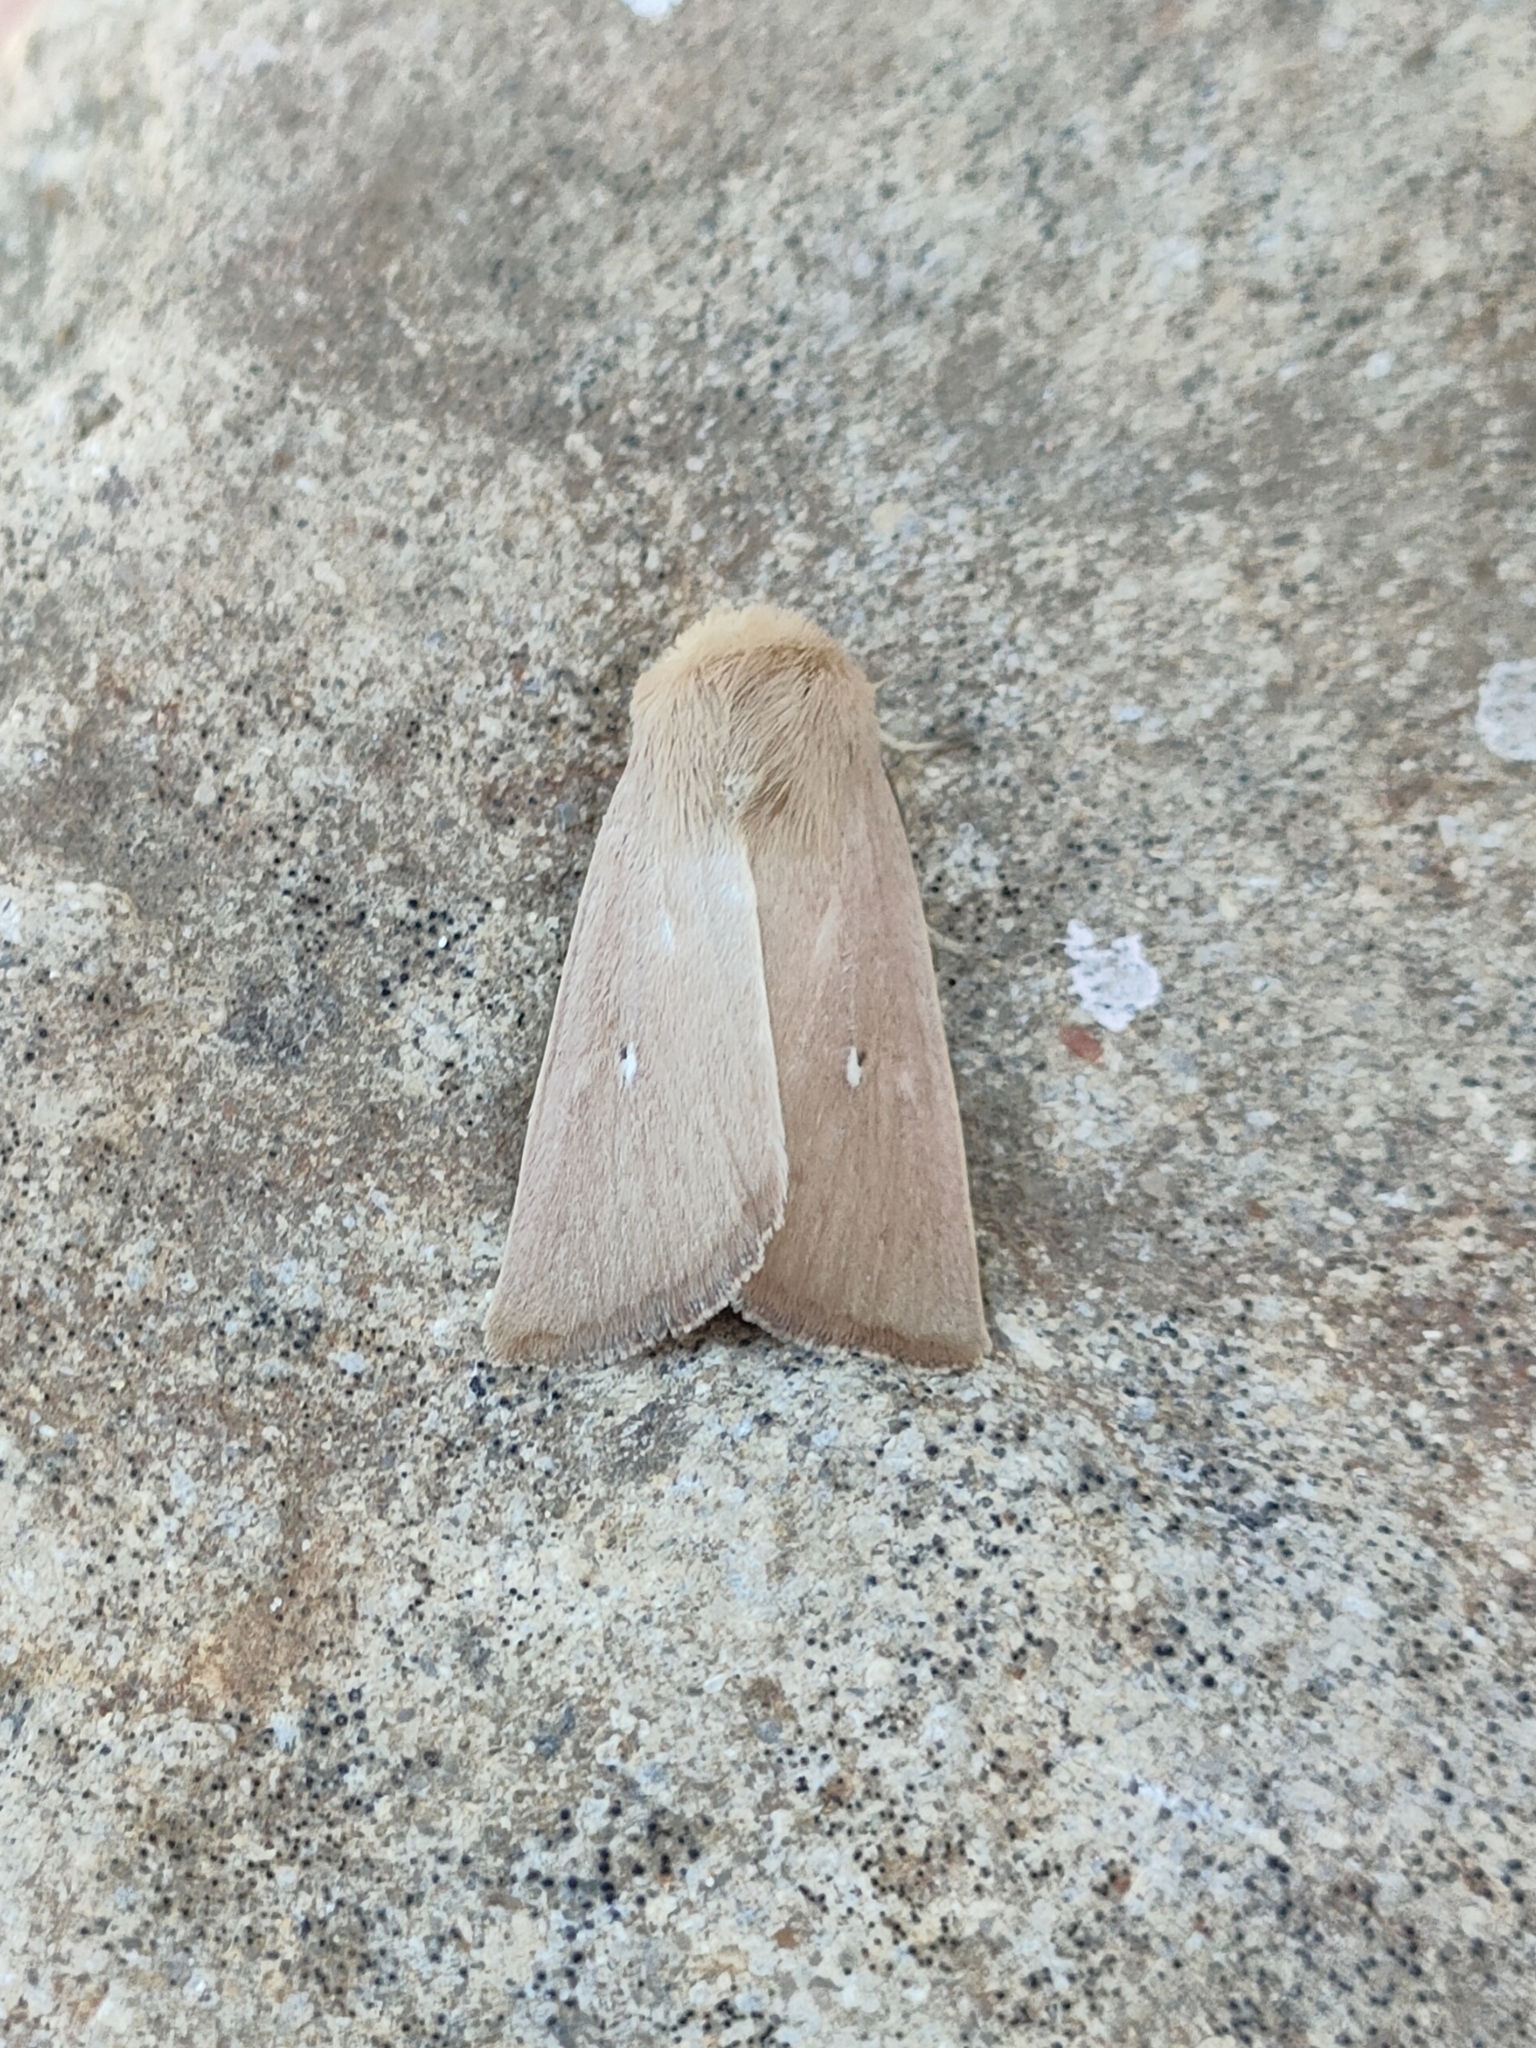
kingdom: Animalia
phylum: Arthropoda
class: Insecta
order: Lepidoptera
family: Noctuidae
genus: Mythimna
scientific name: Mythimna sicula
